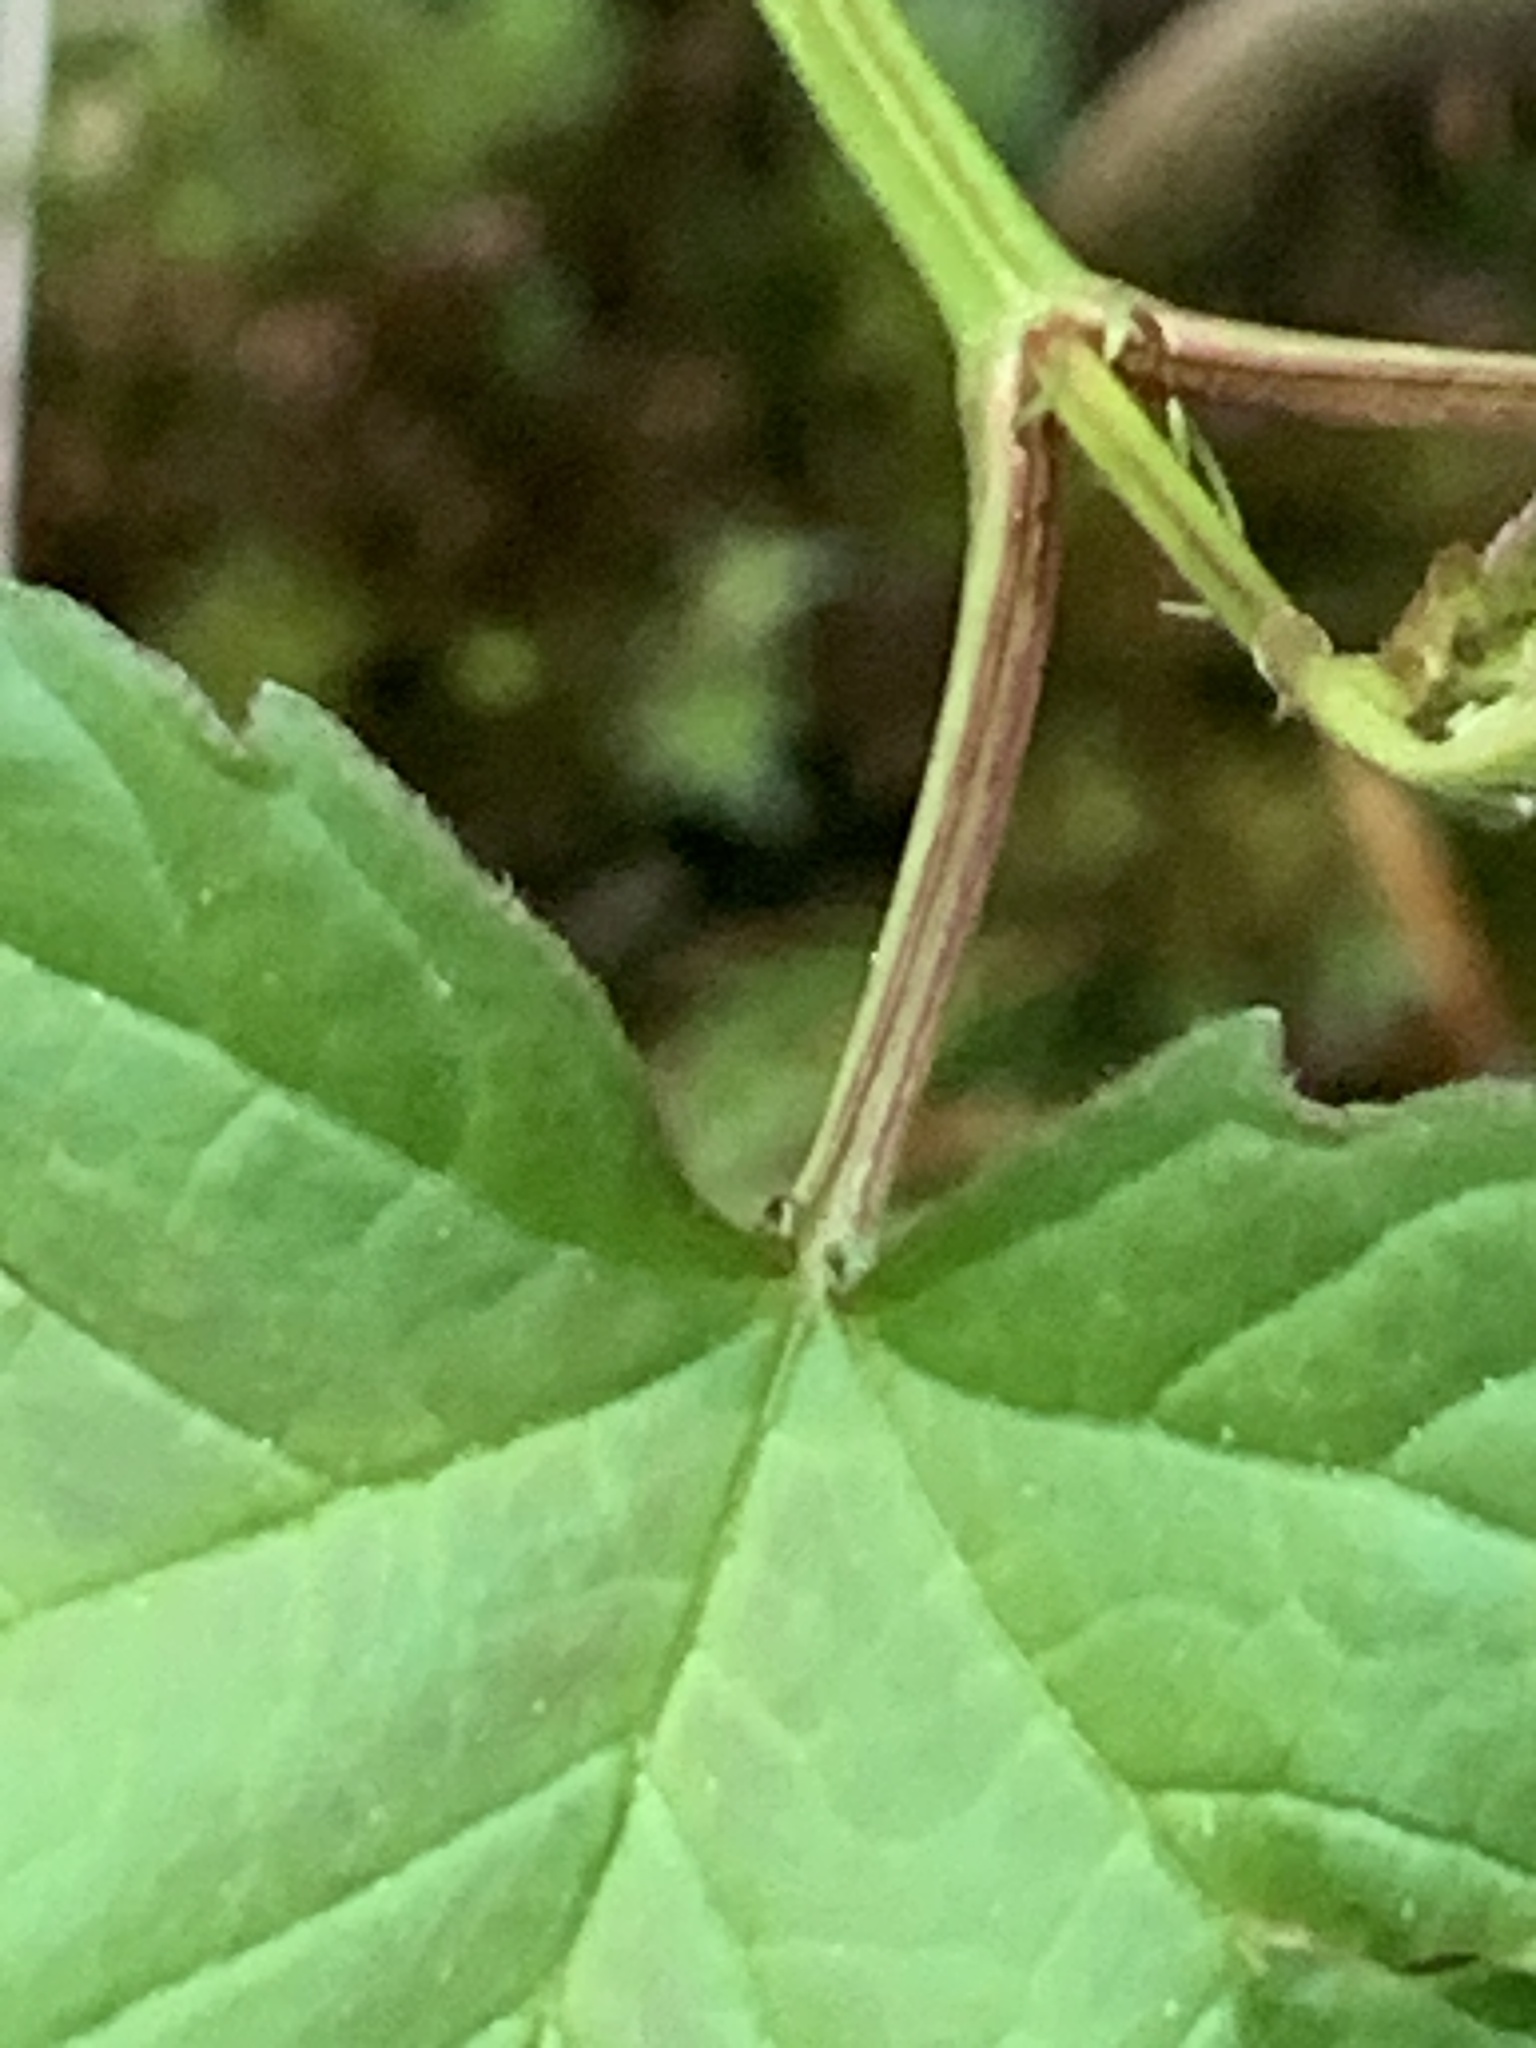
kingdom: Plantae
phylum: Tracheophyta
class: Magnoliopsida
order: Dipsacales
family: Viburnaceae
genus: Viburnum
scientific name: Viburnum opulus
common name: Guelder-rose
